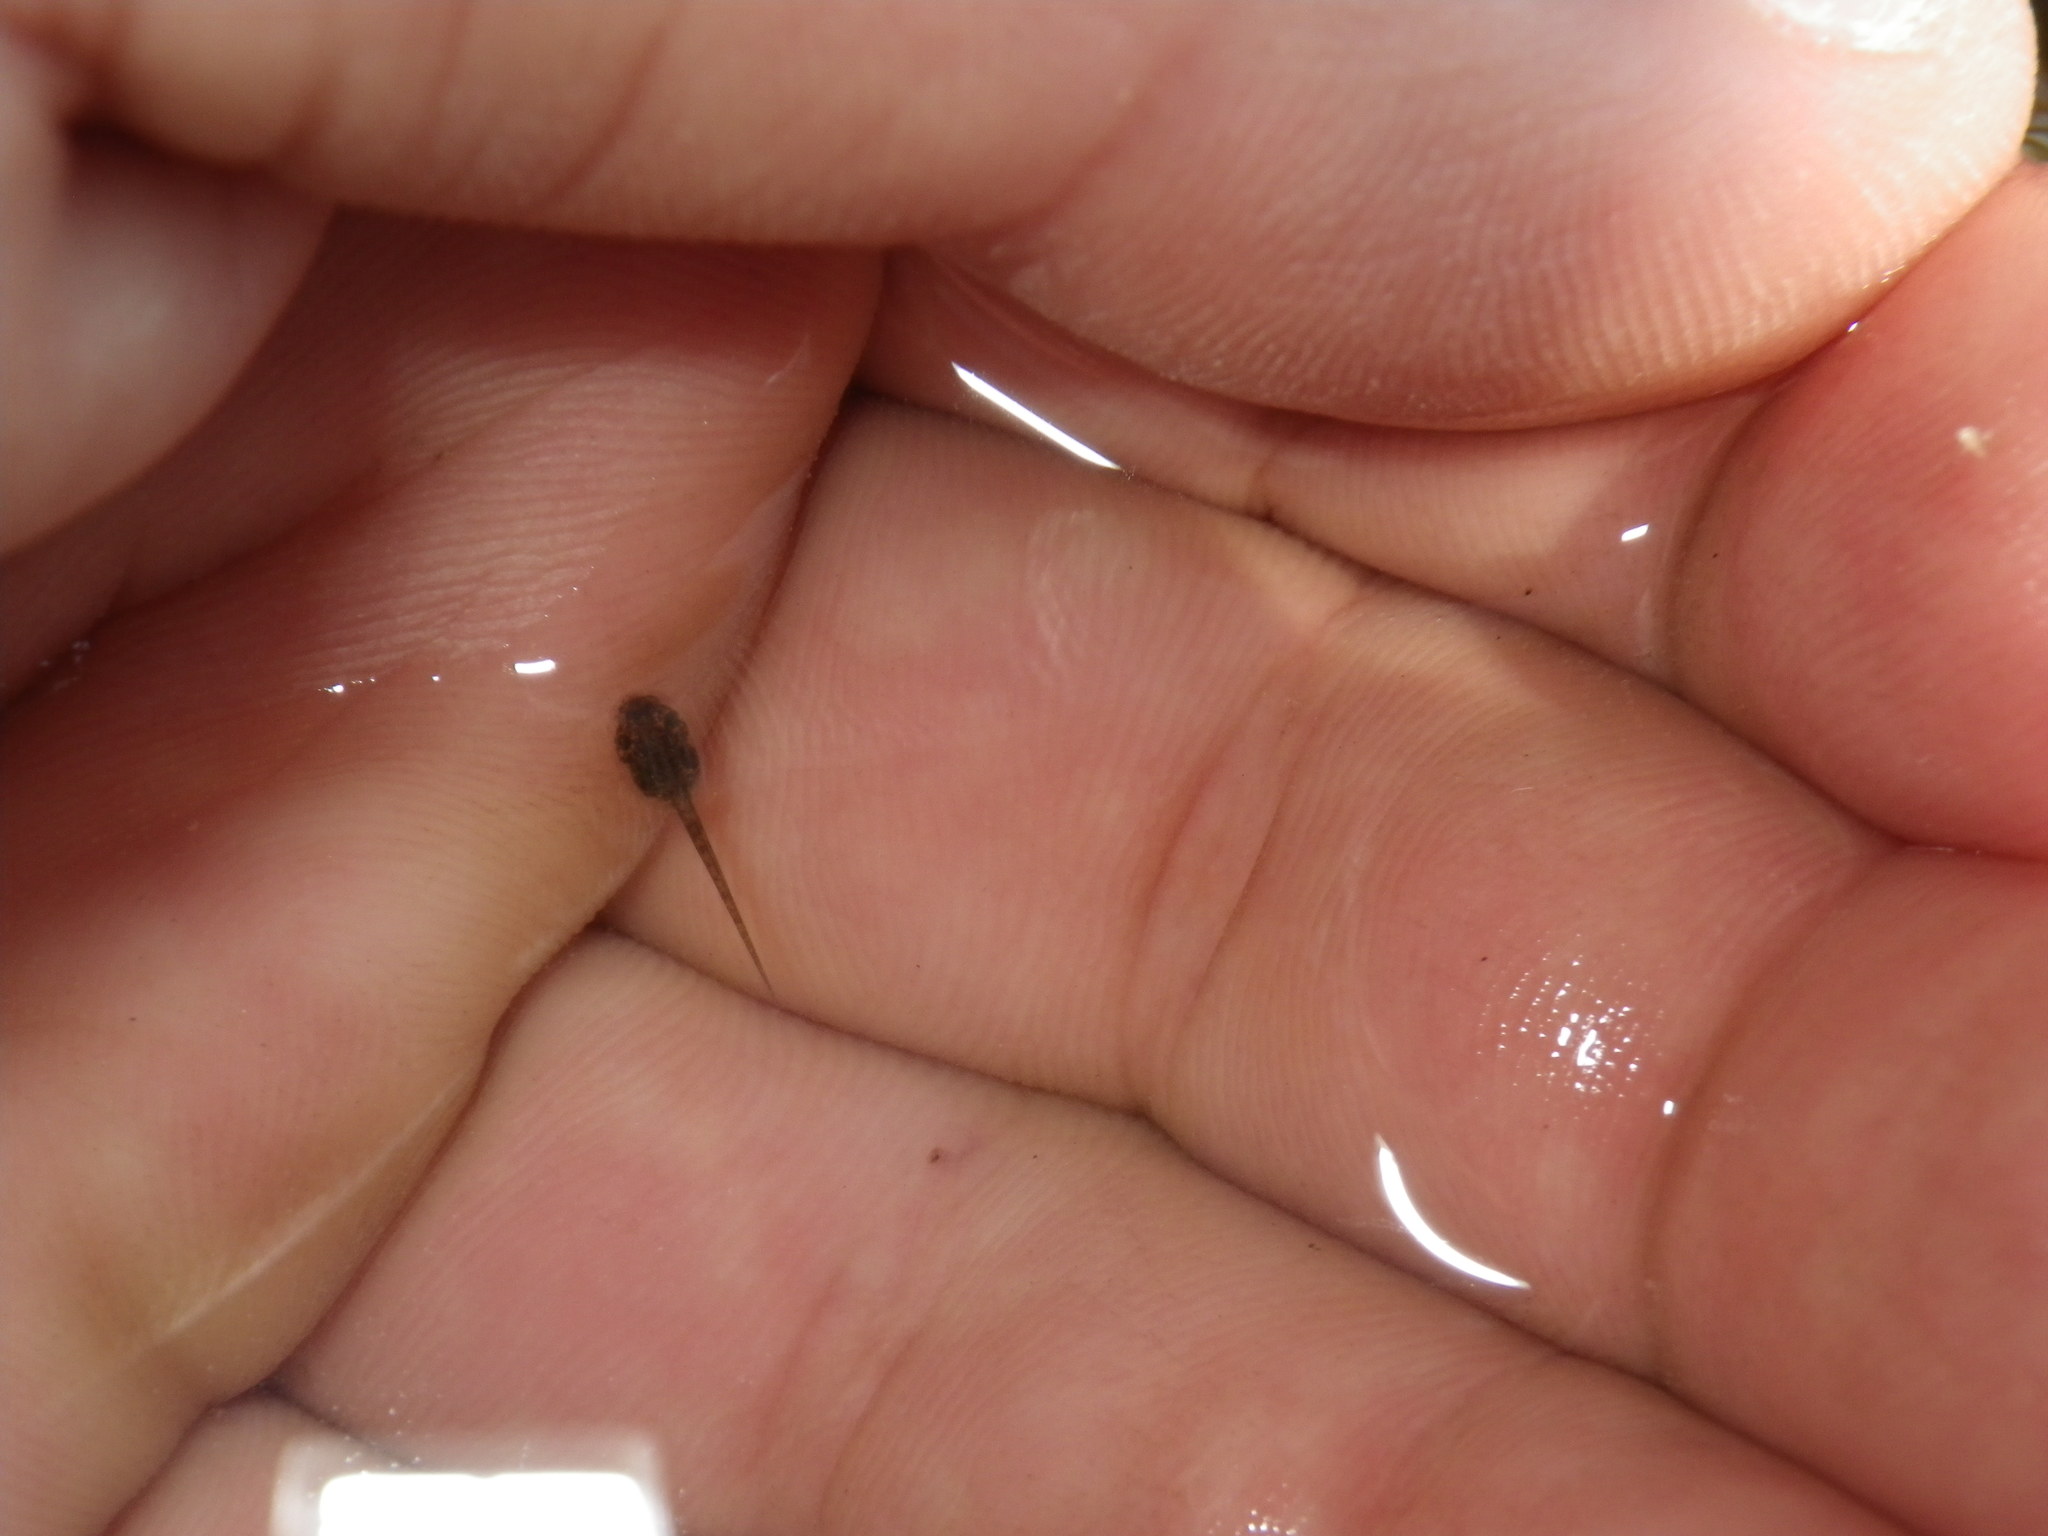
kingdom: Animalia
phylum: Chordata
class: Amphibia
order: Anura
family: Hylidae
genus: Pseudacris
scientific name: Pseudacris regilla
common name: Pacific chorus frog
